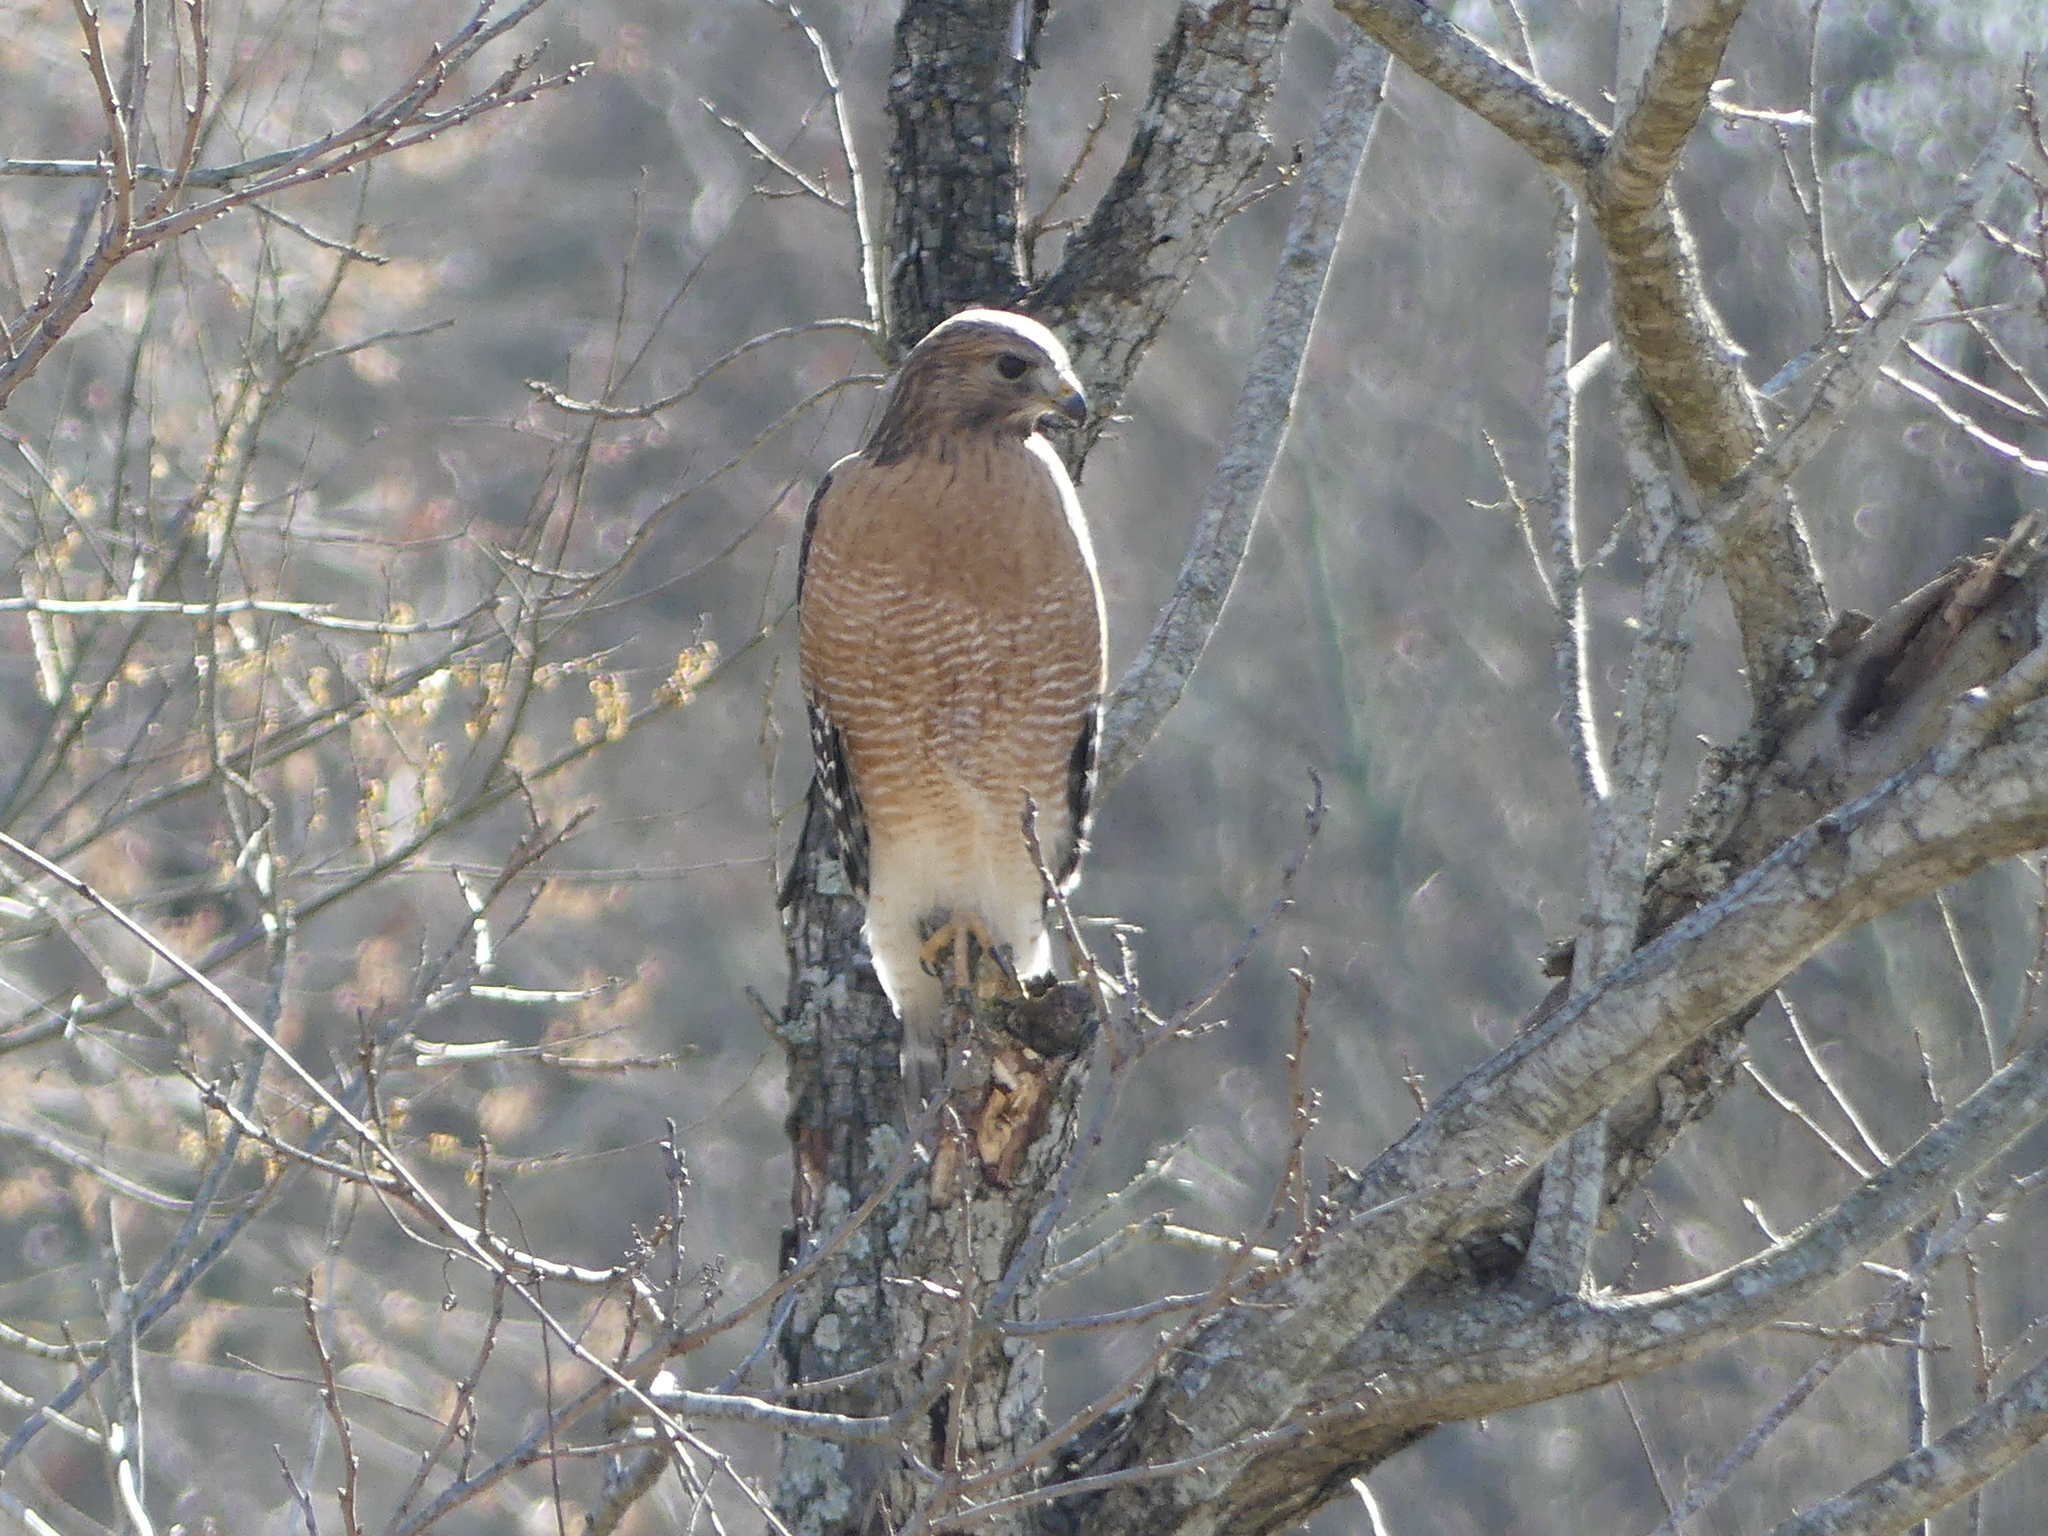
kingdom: Animalia
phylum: Chordata
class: Aves
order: Accipitriformes
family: Accipitridae
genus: Buteo
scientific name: Buteo lineatus
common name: Red-shouldered hawk
